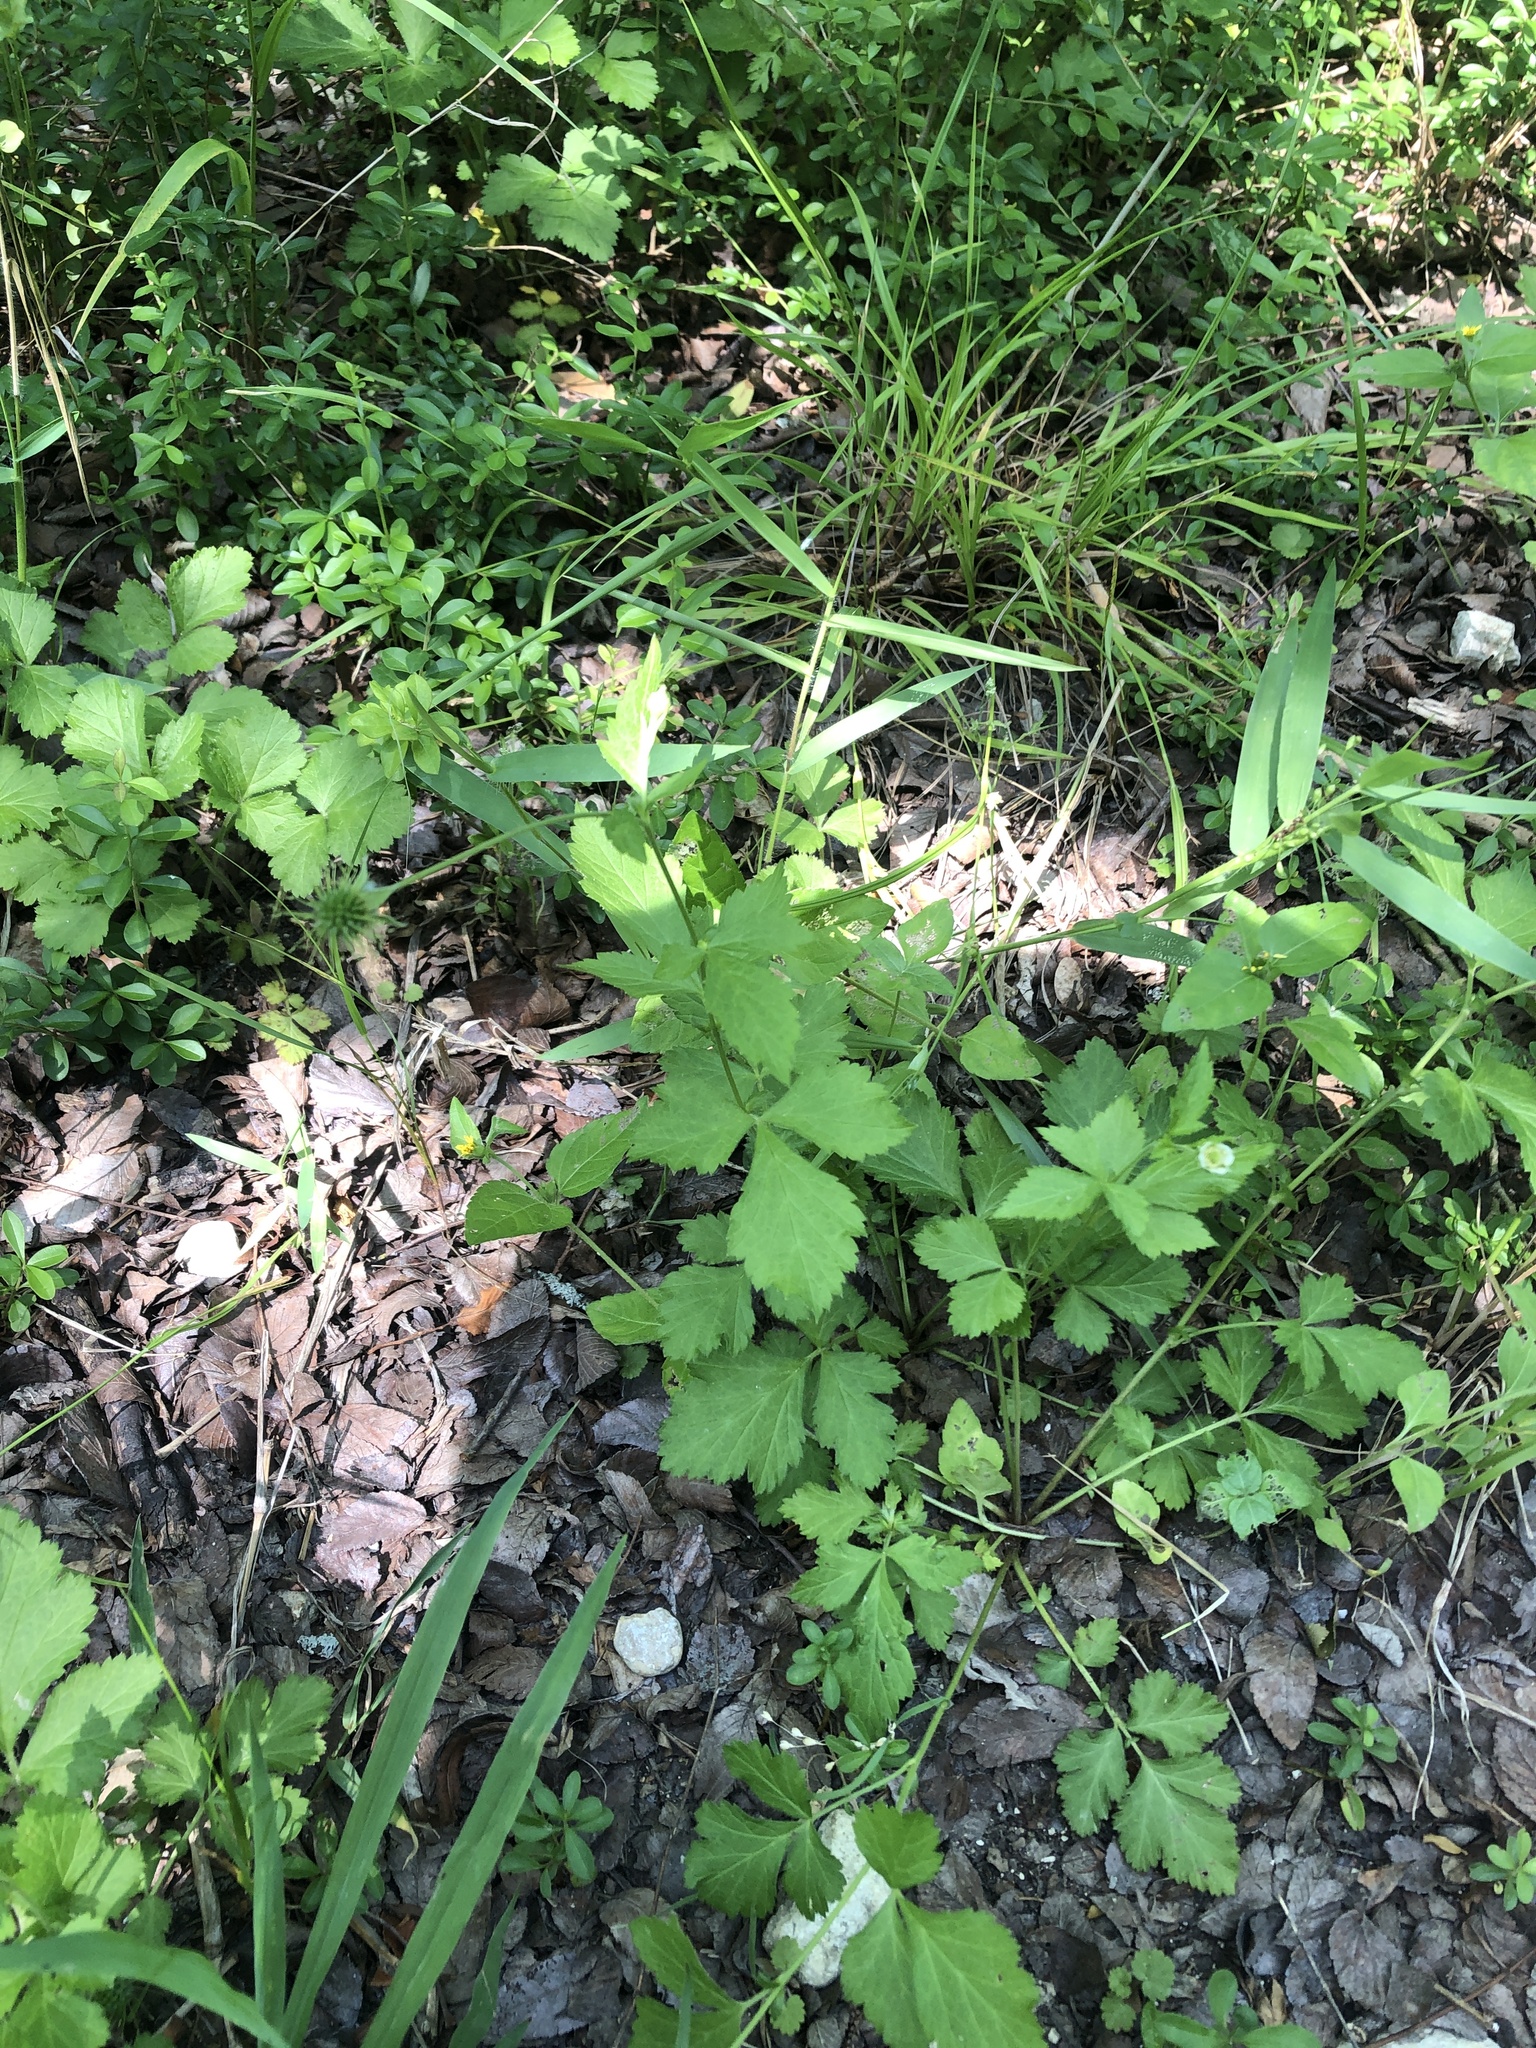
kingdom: Plantae
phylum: Tracheophyta
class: Magnoliopsida
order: Rosales
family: Rosaceae
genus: Geum
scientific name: Geum canadense
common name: White avens
